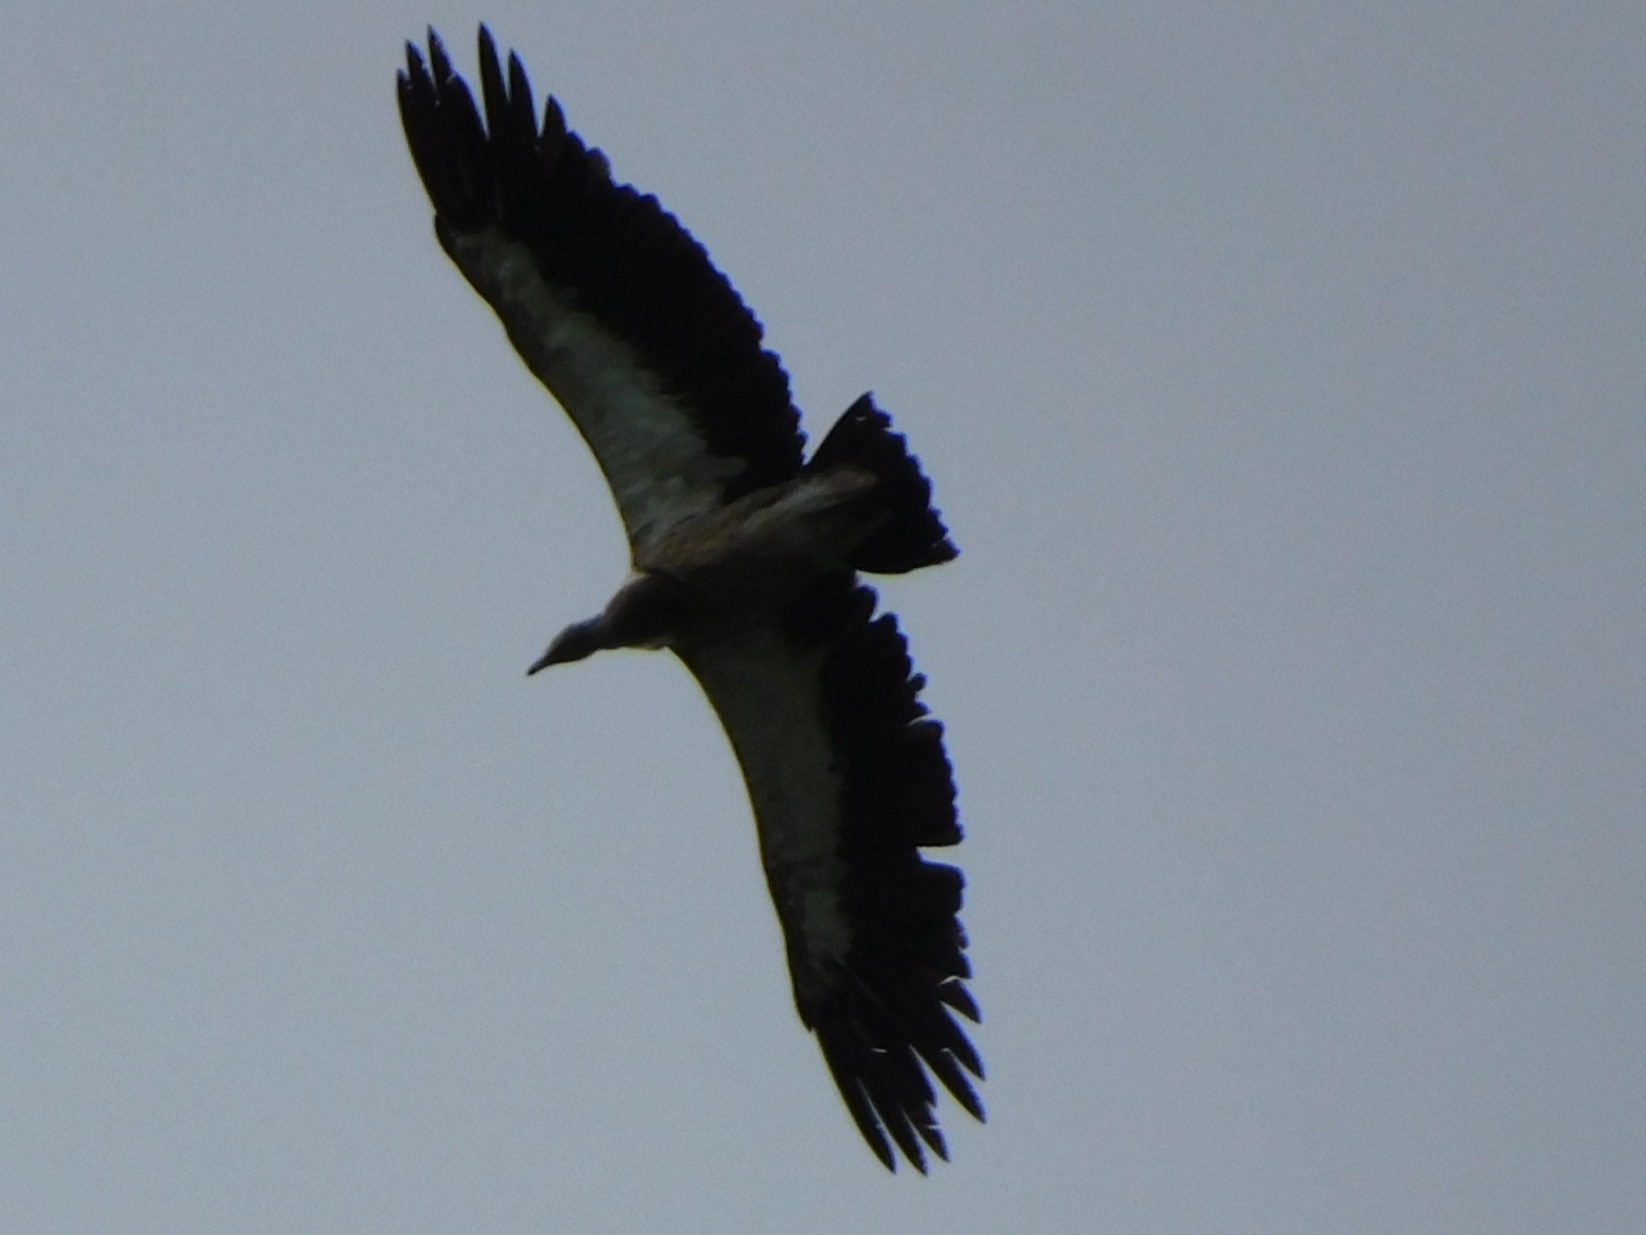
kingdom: Animalia
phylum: Chordata
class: Aves
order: Accipitriformes
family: Accipitridae
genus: Gyps
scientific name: Gyps himalayensis
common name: Himalayan griffon
